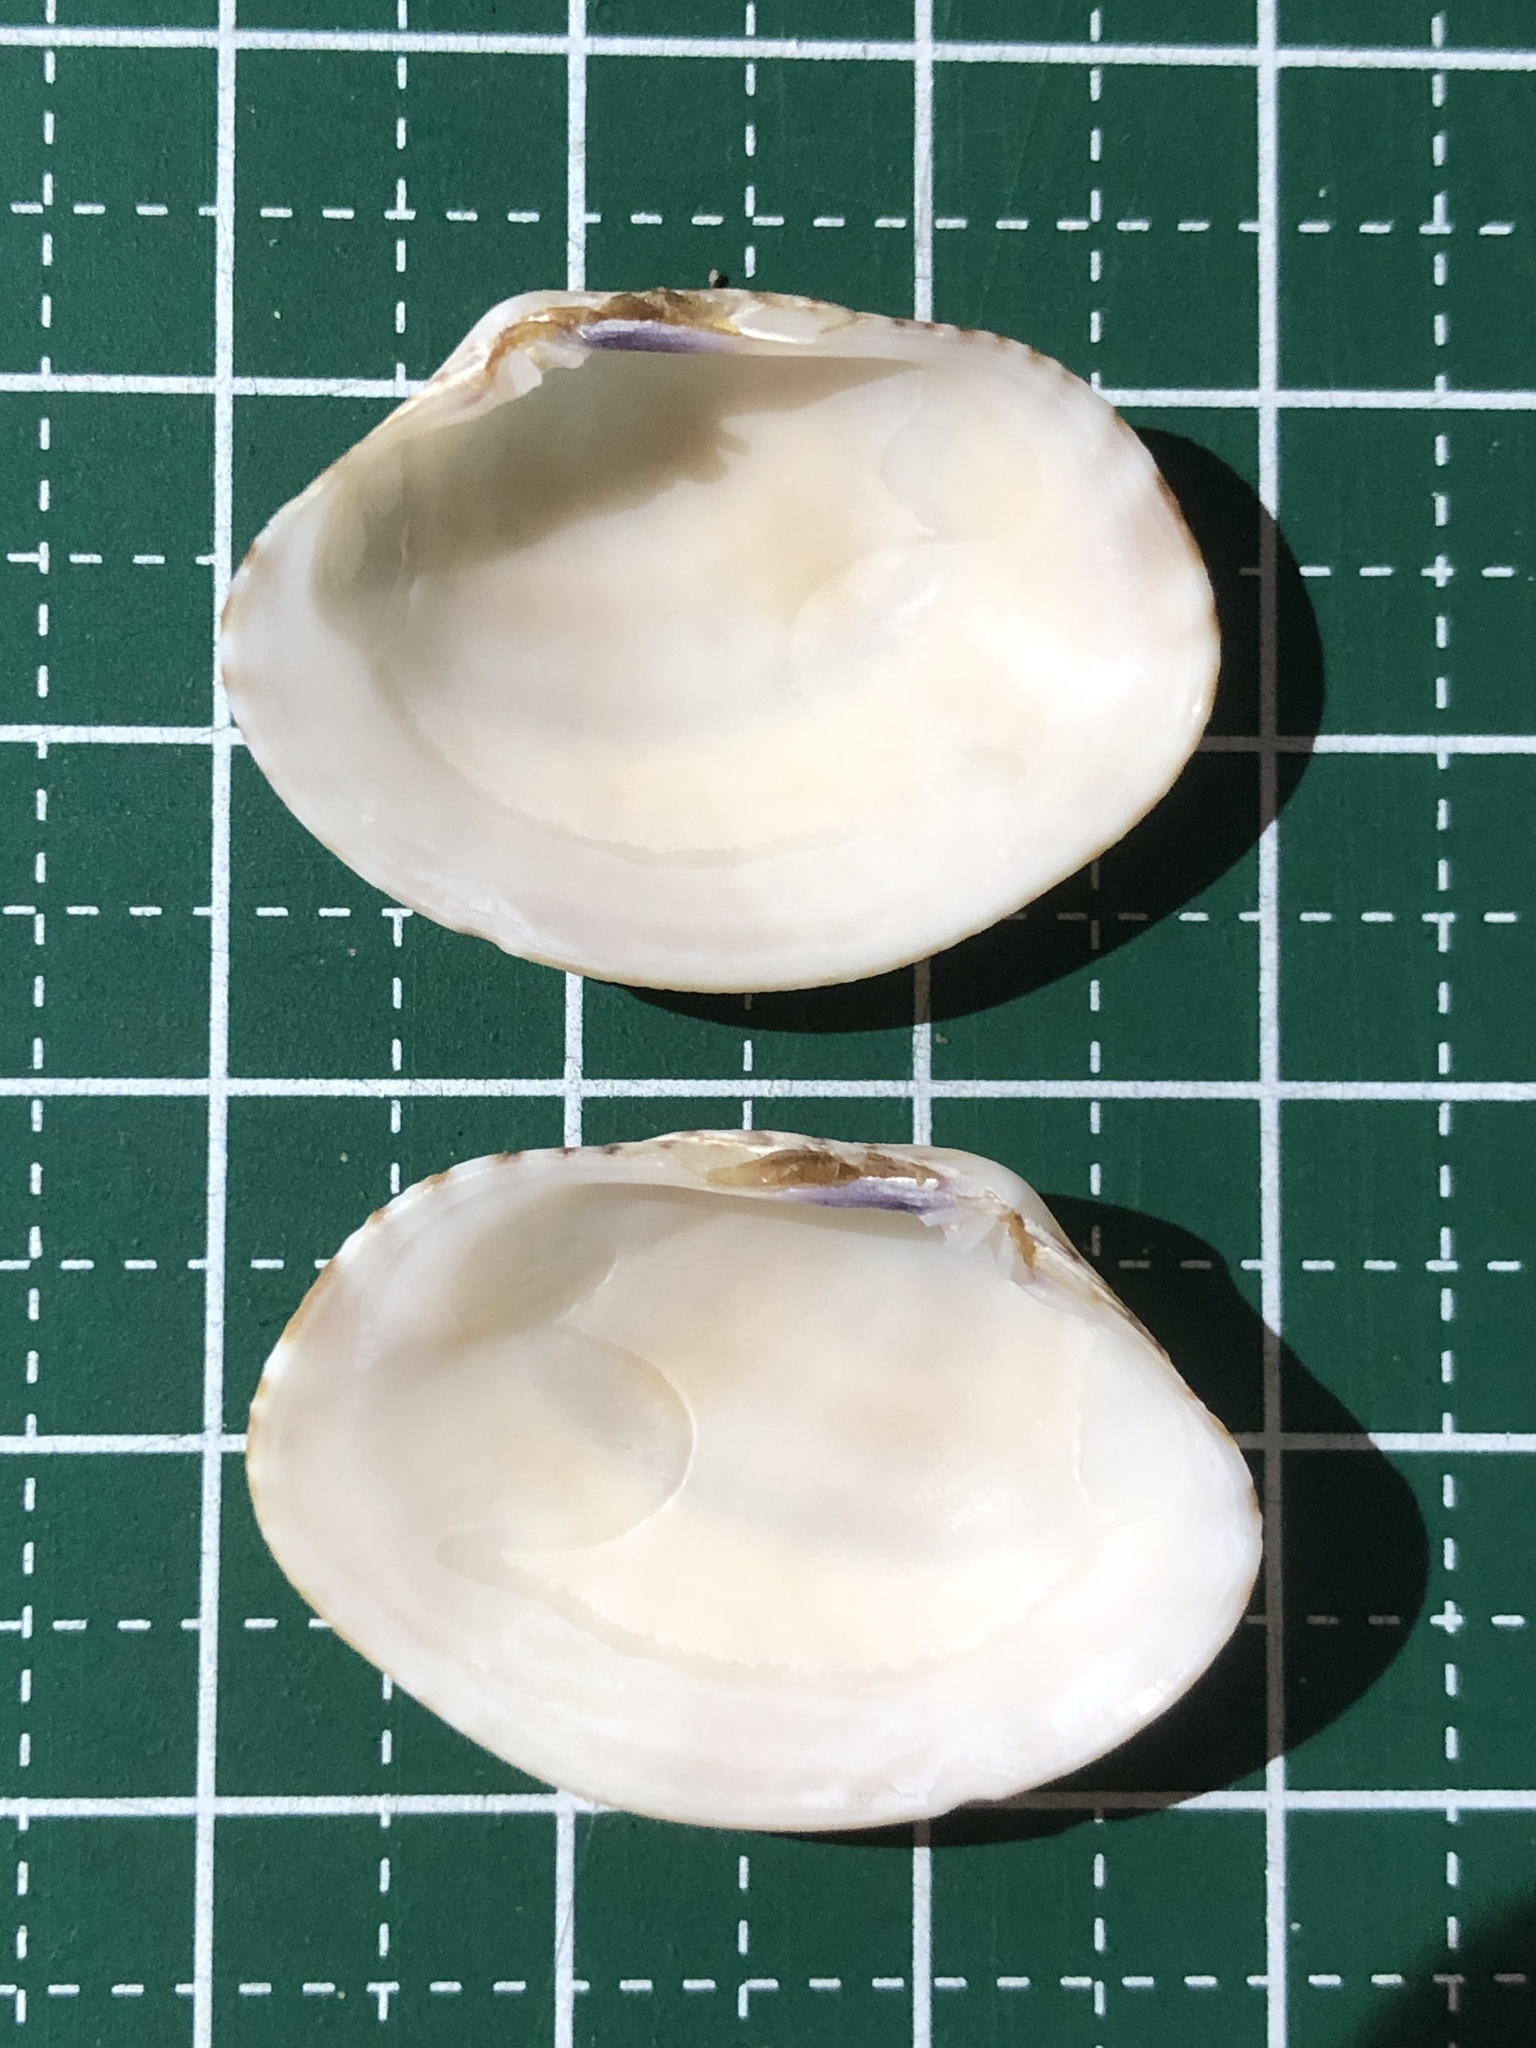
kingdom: Animalia
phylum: Mollusca
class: Bivalvia
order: Venerida
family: Veneridae
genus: Venerupis
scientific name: Venerupis aspera
